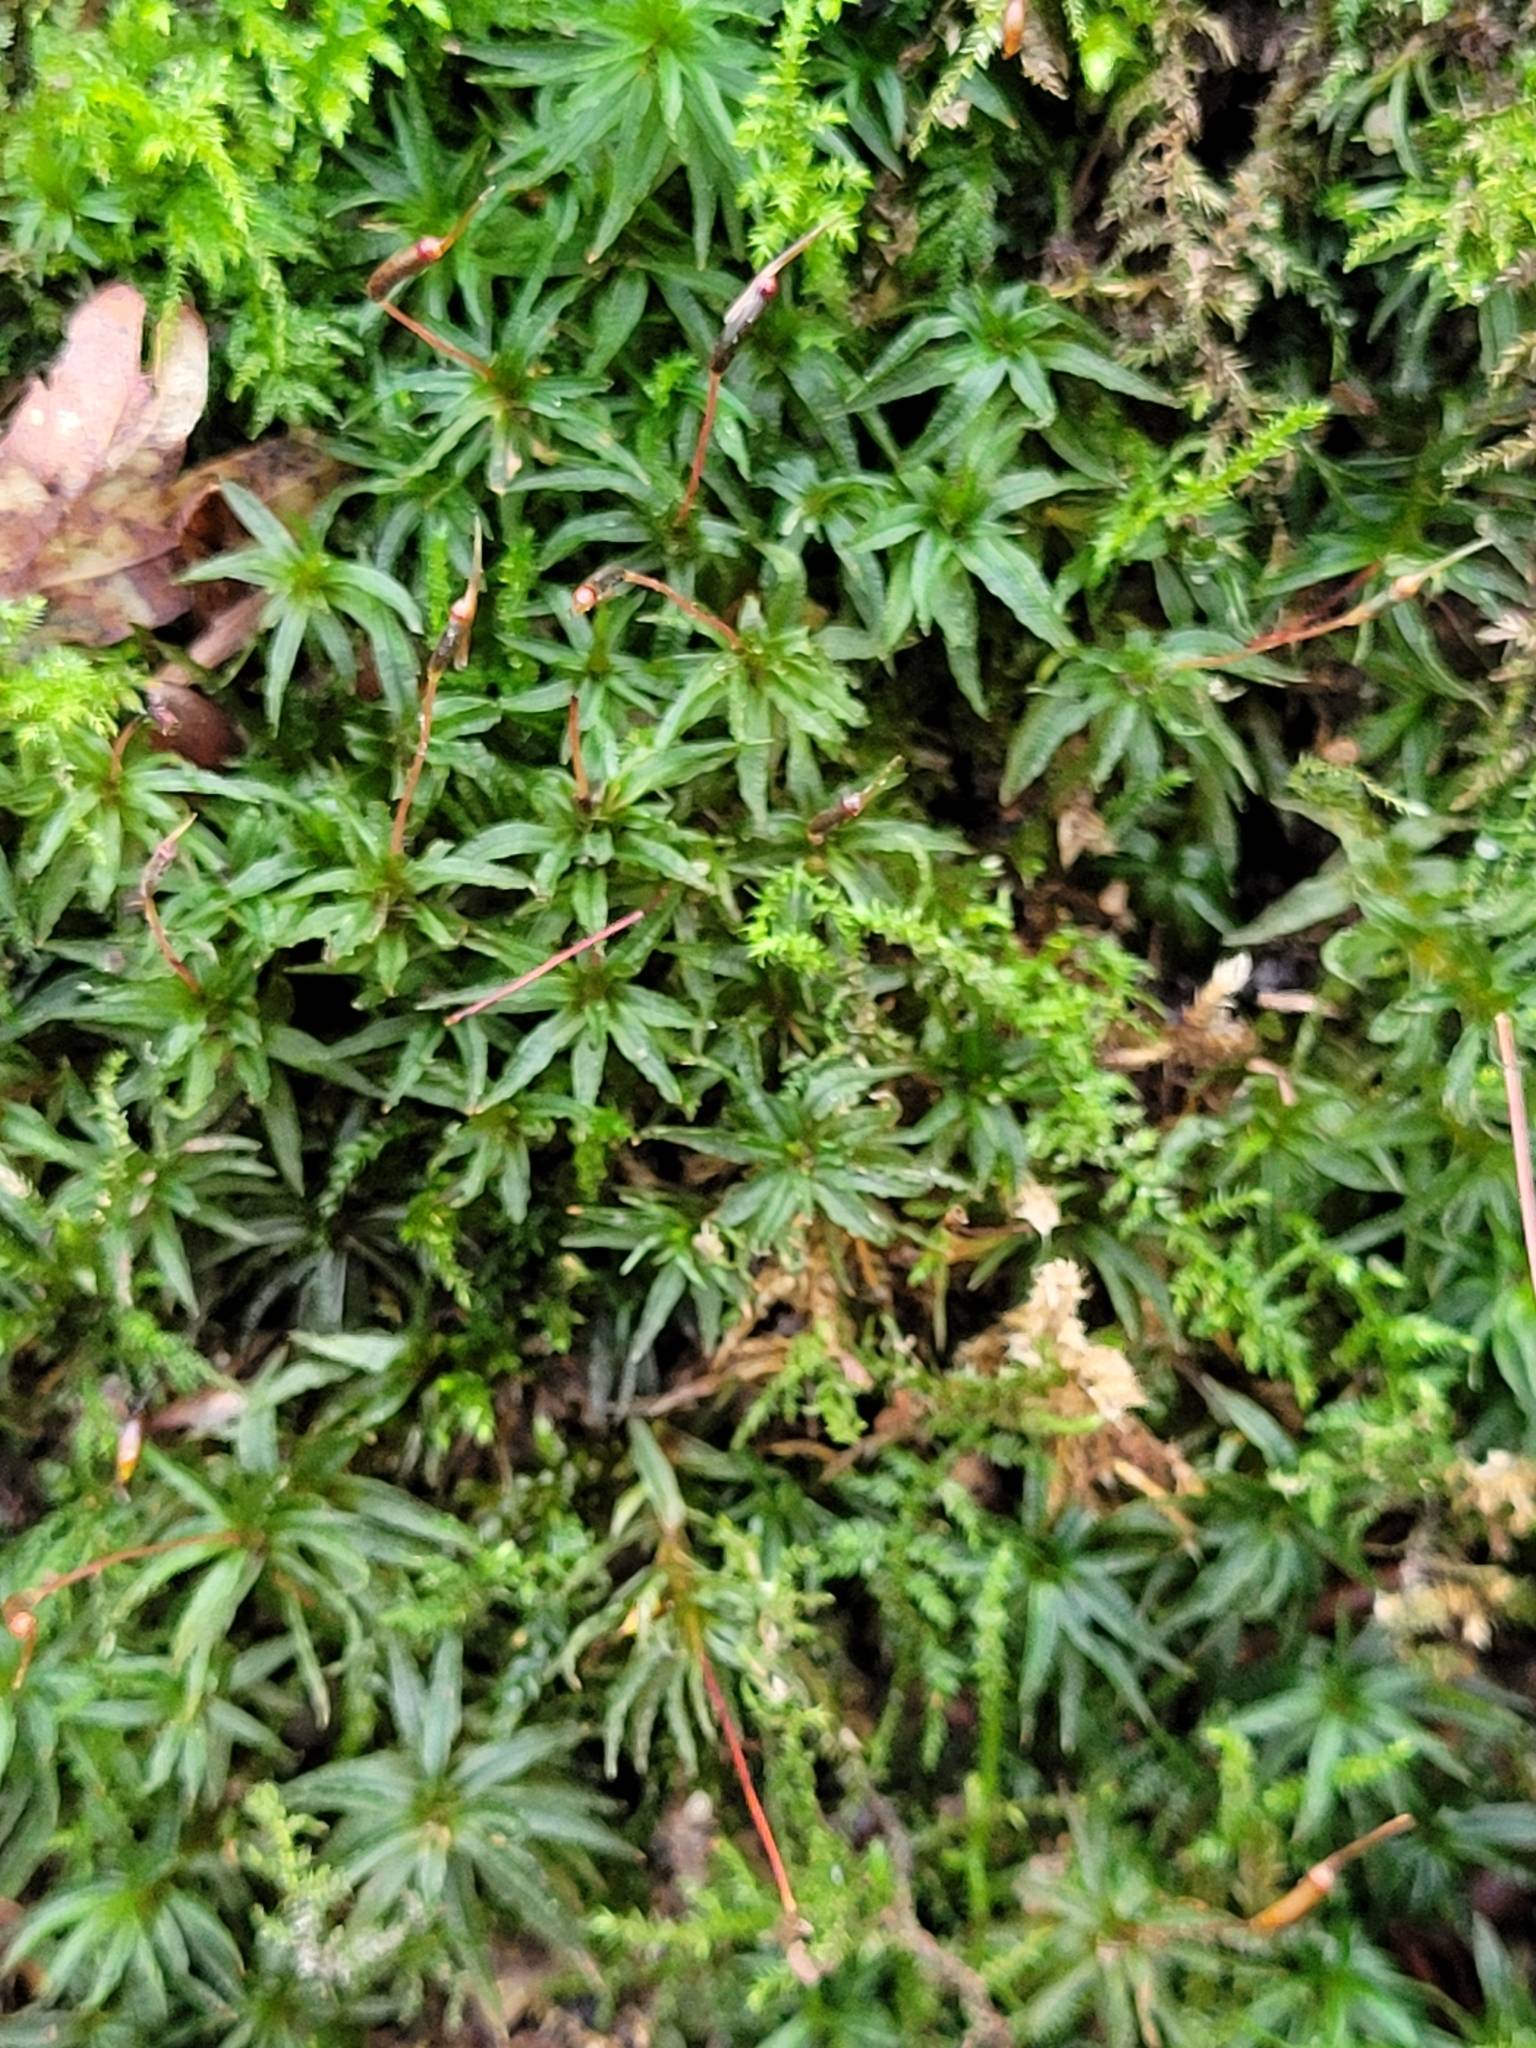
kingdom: Plantae
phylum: Bryophyta
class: Polytrichopsida
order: Polytrichales
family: Polytrichaceae
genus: Atrichum
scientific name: Atrichum undulatum
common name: Common smoothcap
